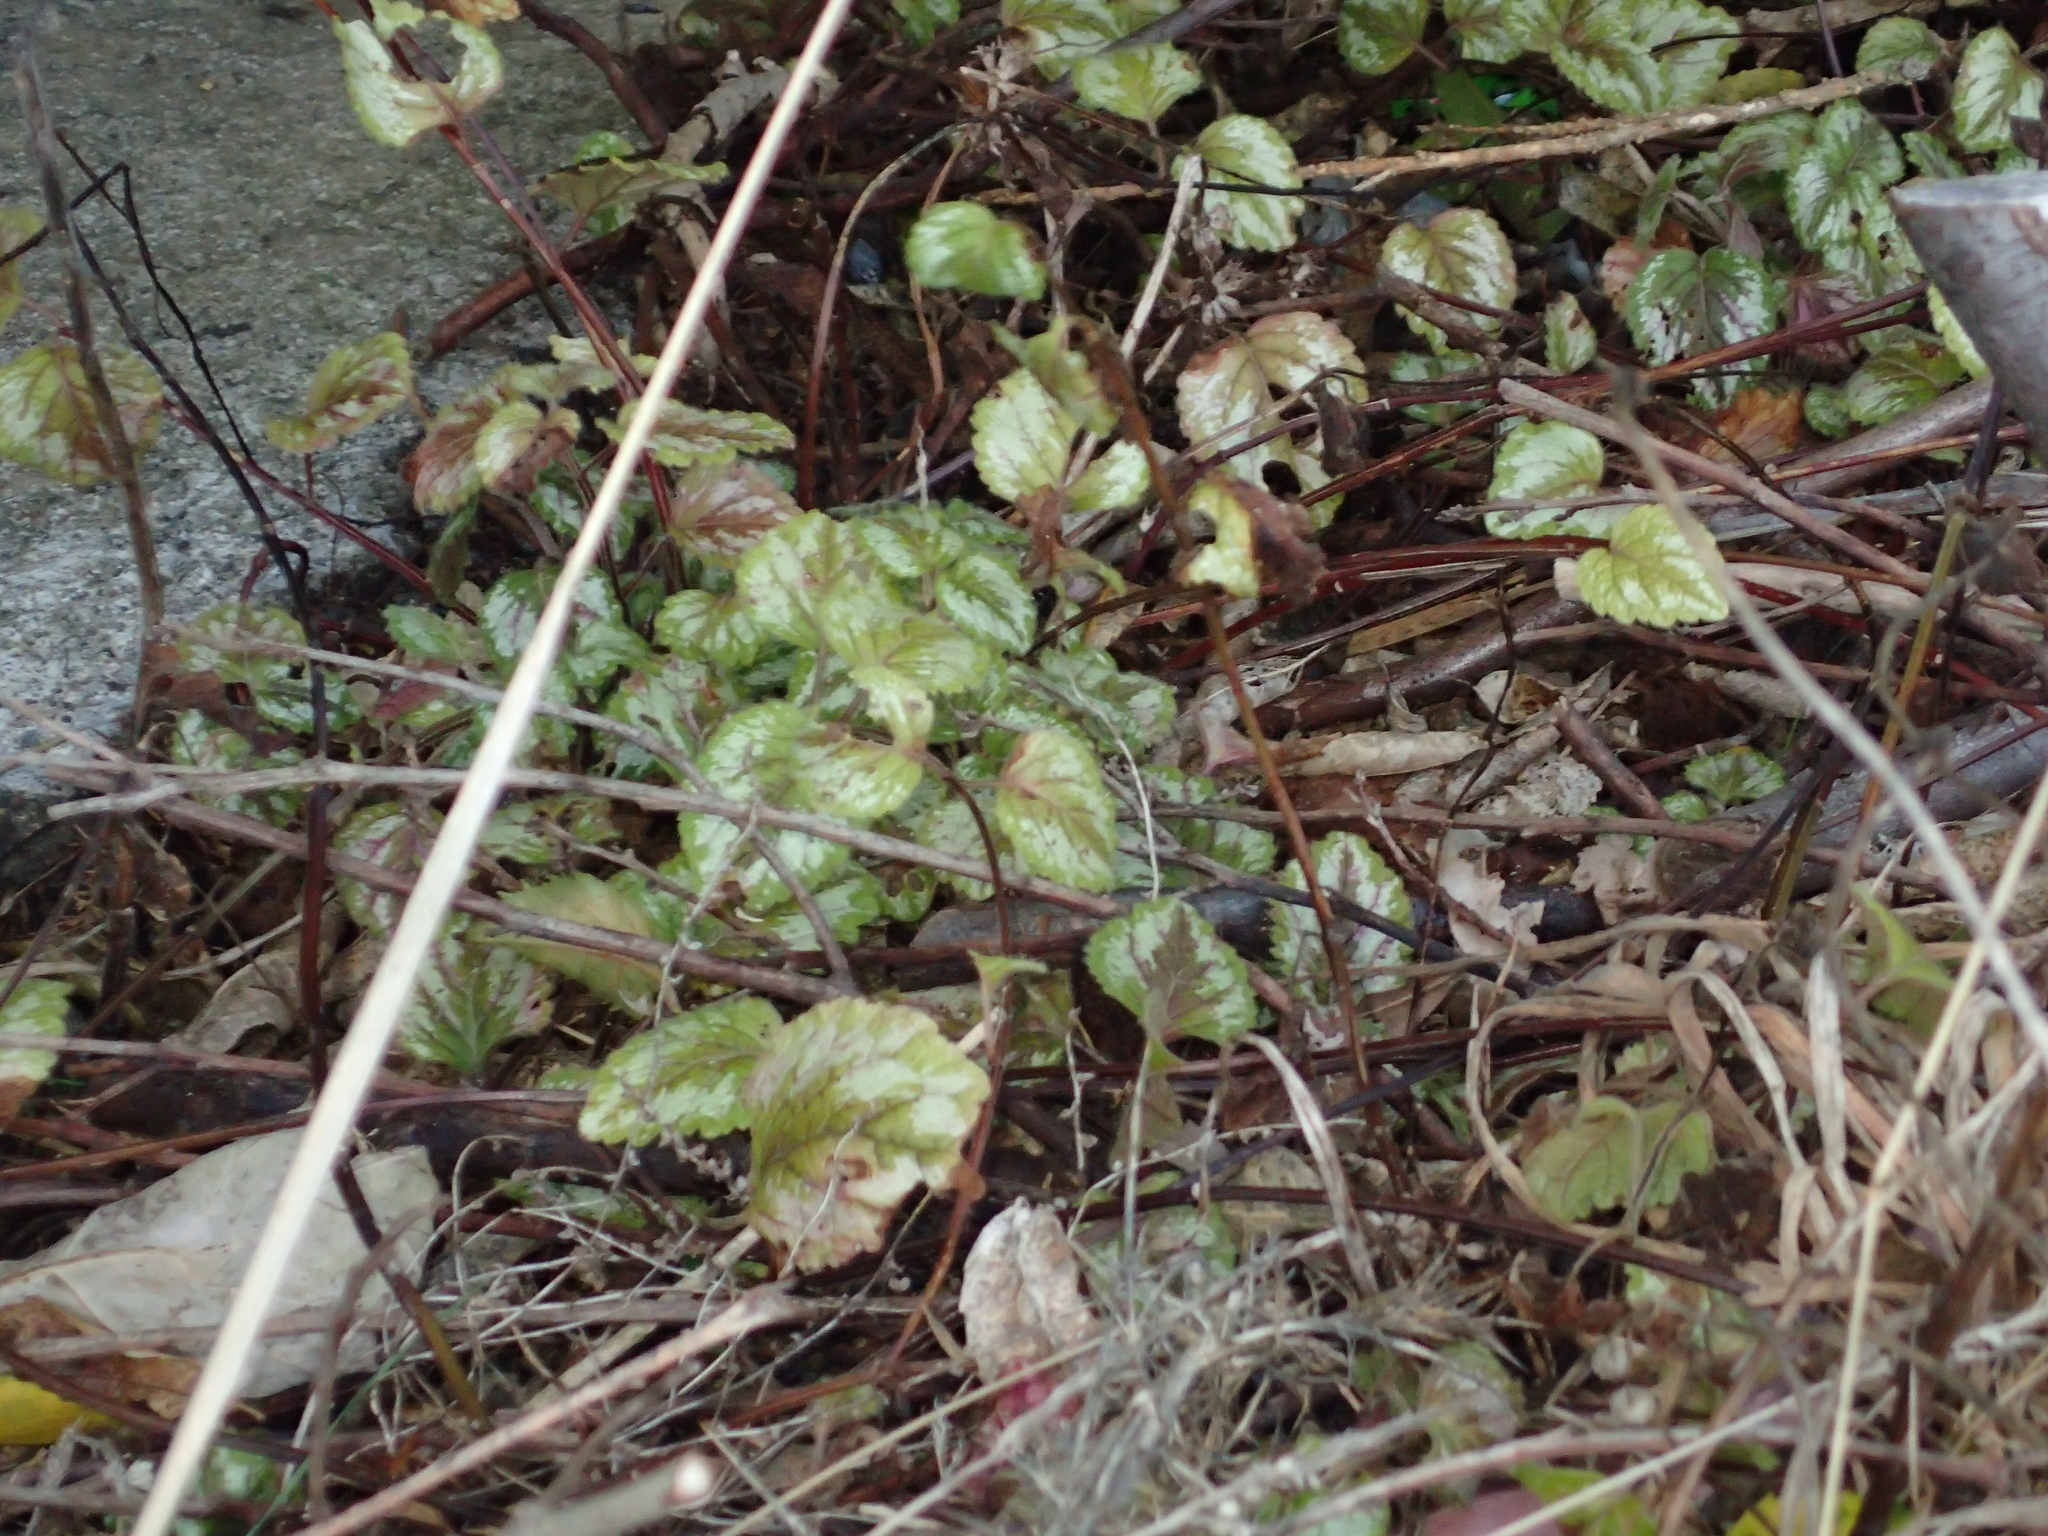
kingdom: Plantae
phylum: Tracheophyta
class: Magnoliopsida
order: Lamiales
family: Lamiaceae
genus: Lamium
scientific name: Lamium galeobdolon
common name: Yellow archangel
